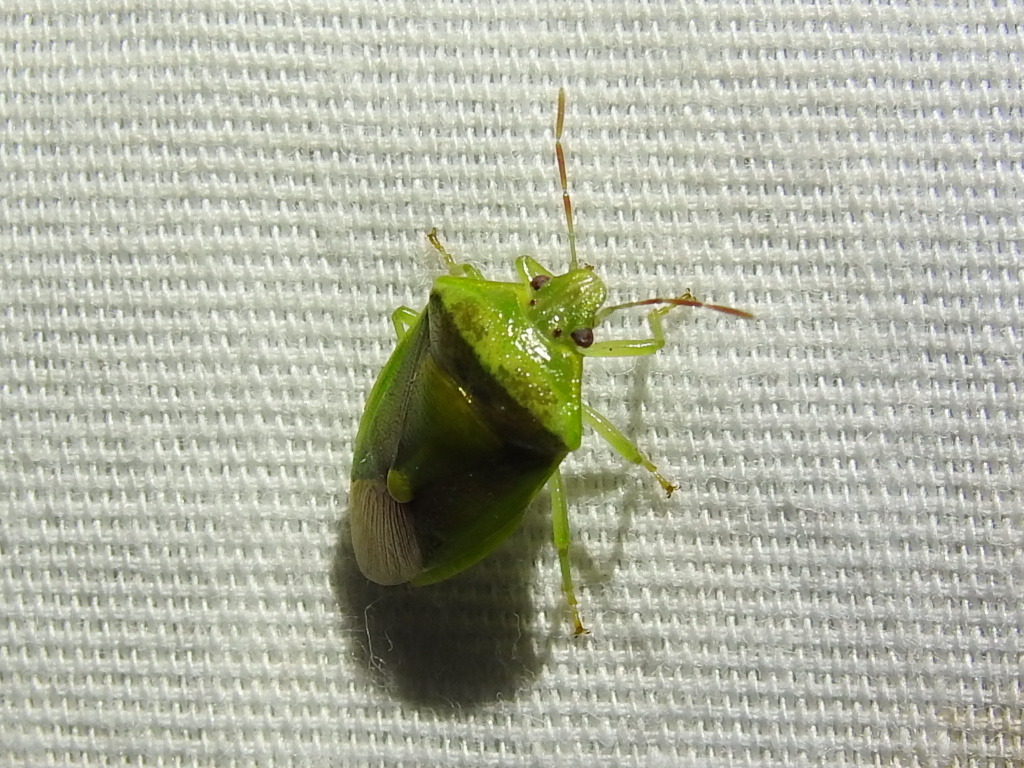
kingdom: Animalia
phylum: Arthropoda
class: Insecta
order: Hemiptera
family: Pentatomidae
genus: Banasa
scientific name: Banasa dimidiata
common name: Green burgundy stink bug
